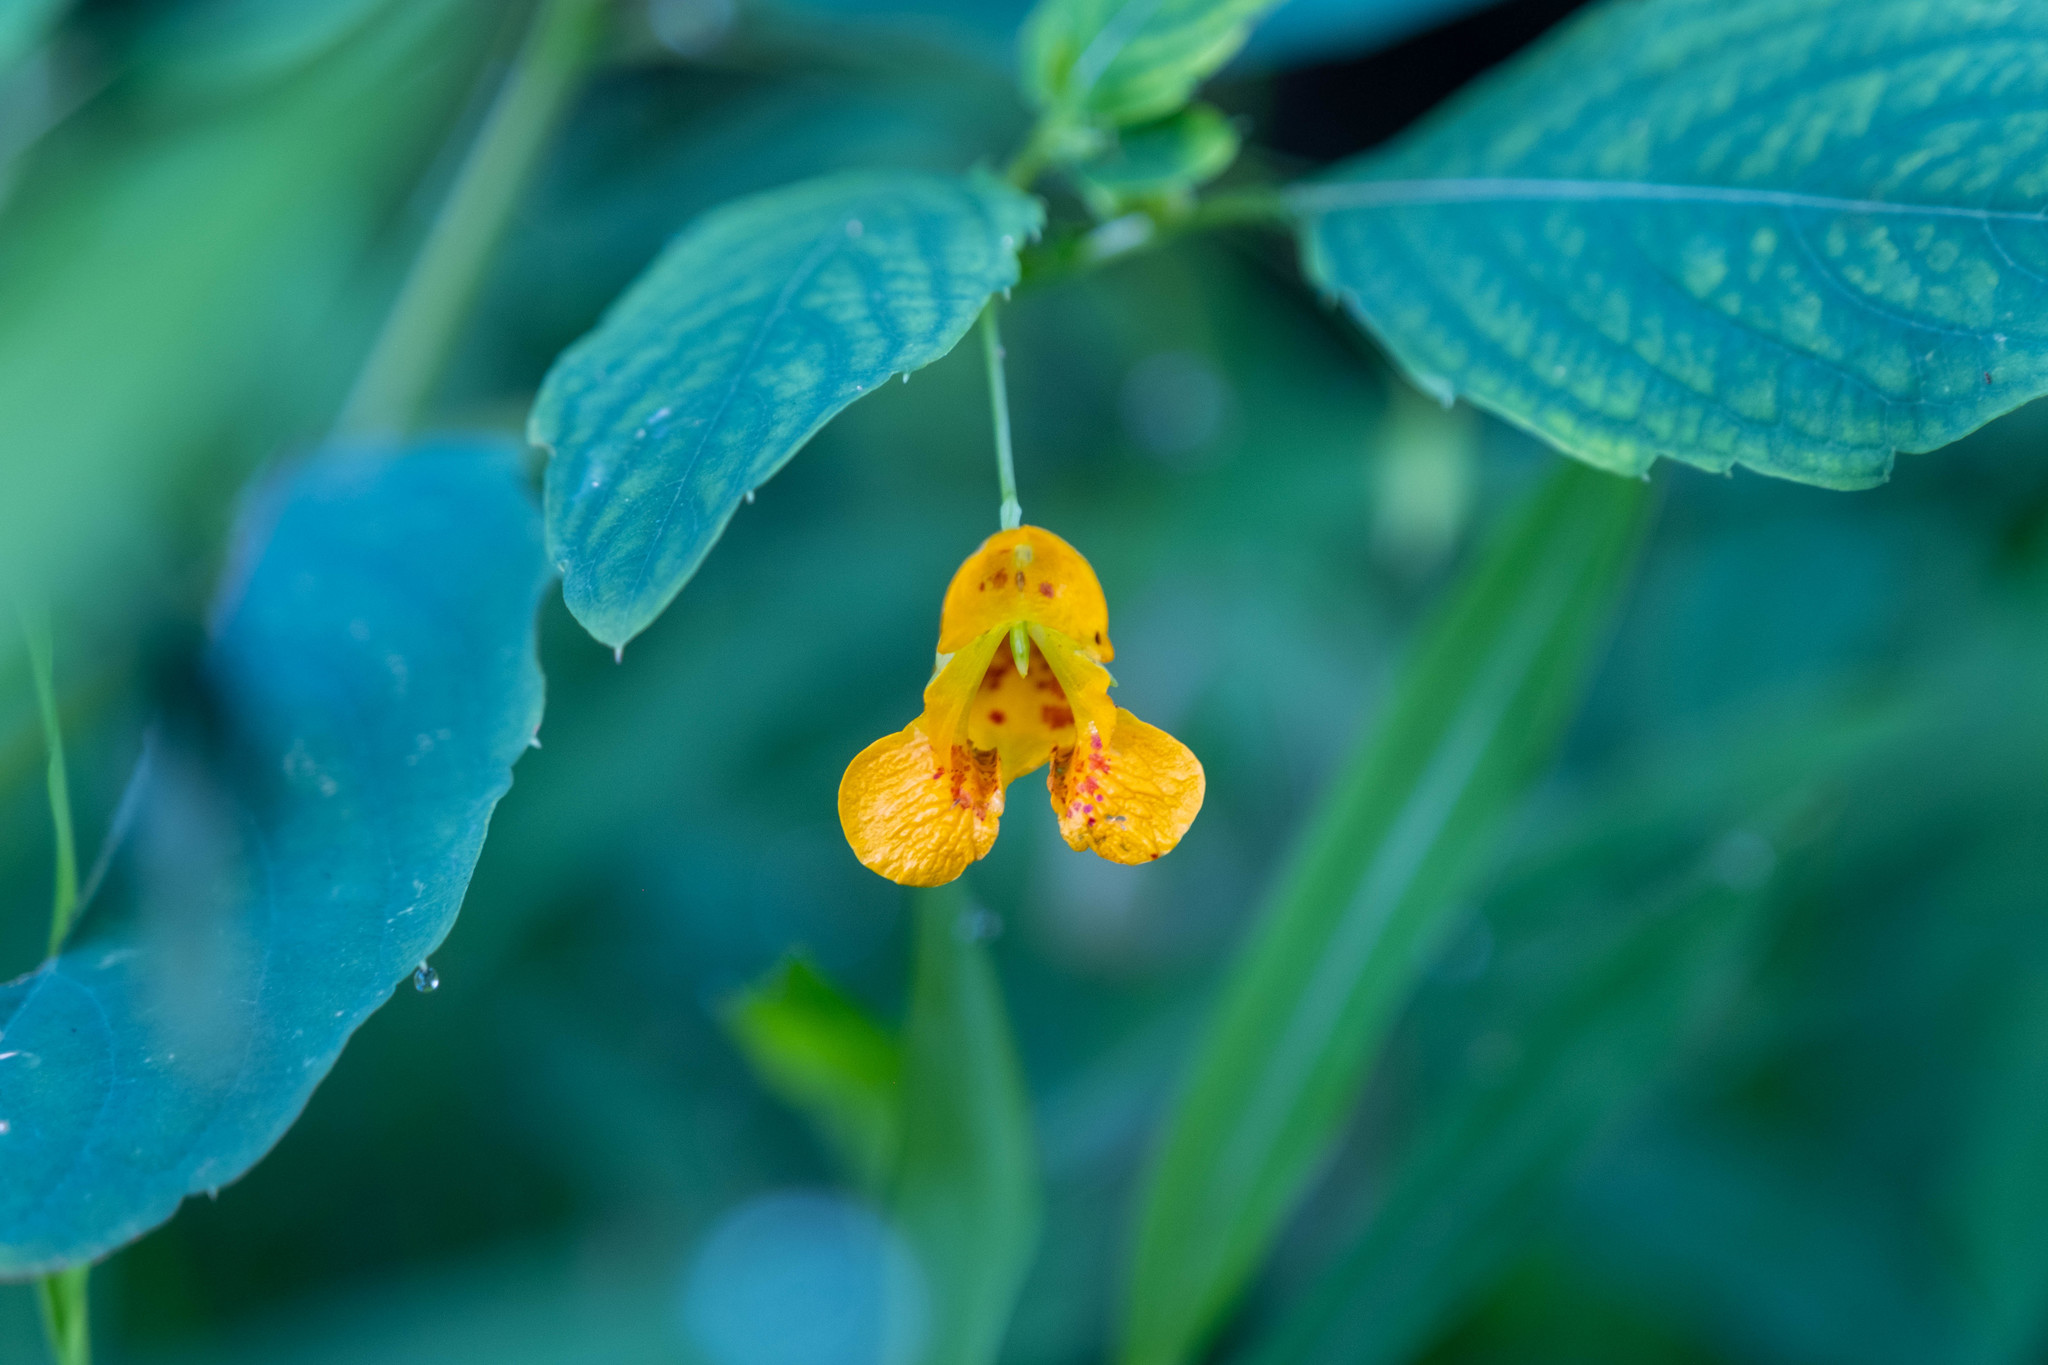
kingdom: Plantae
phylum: Tracheophyta
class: Magnoliopsida
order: Ericales
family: Balsaminaceae
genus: Impatiens
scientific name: Impatiens capensis
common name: Orange balsam
